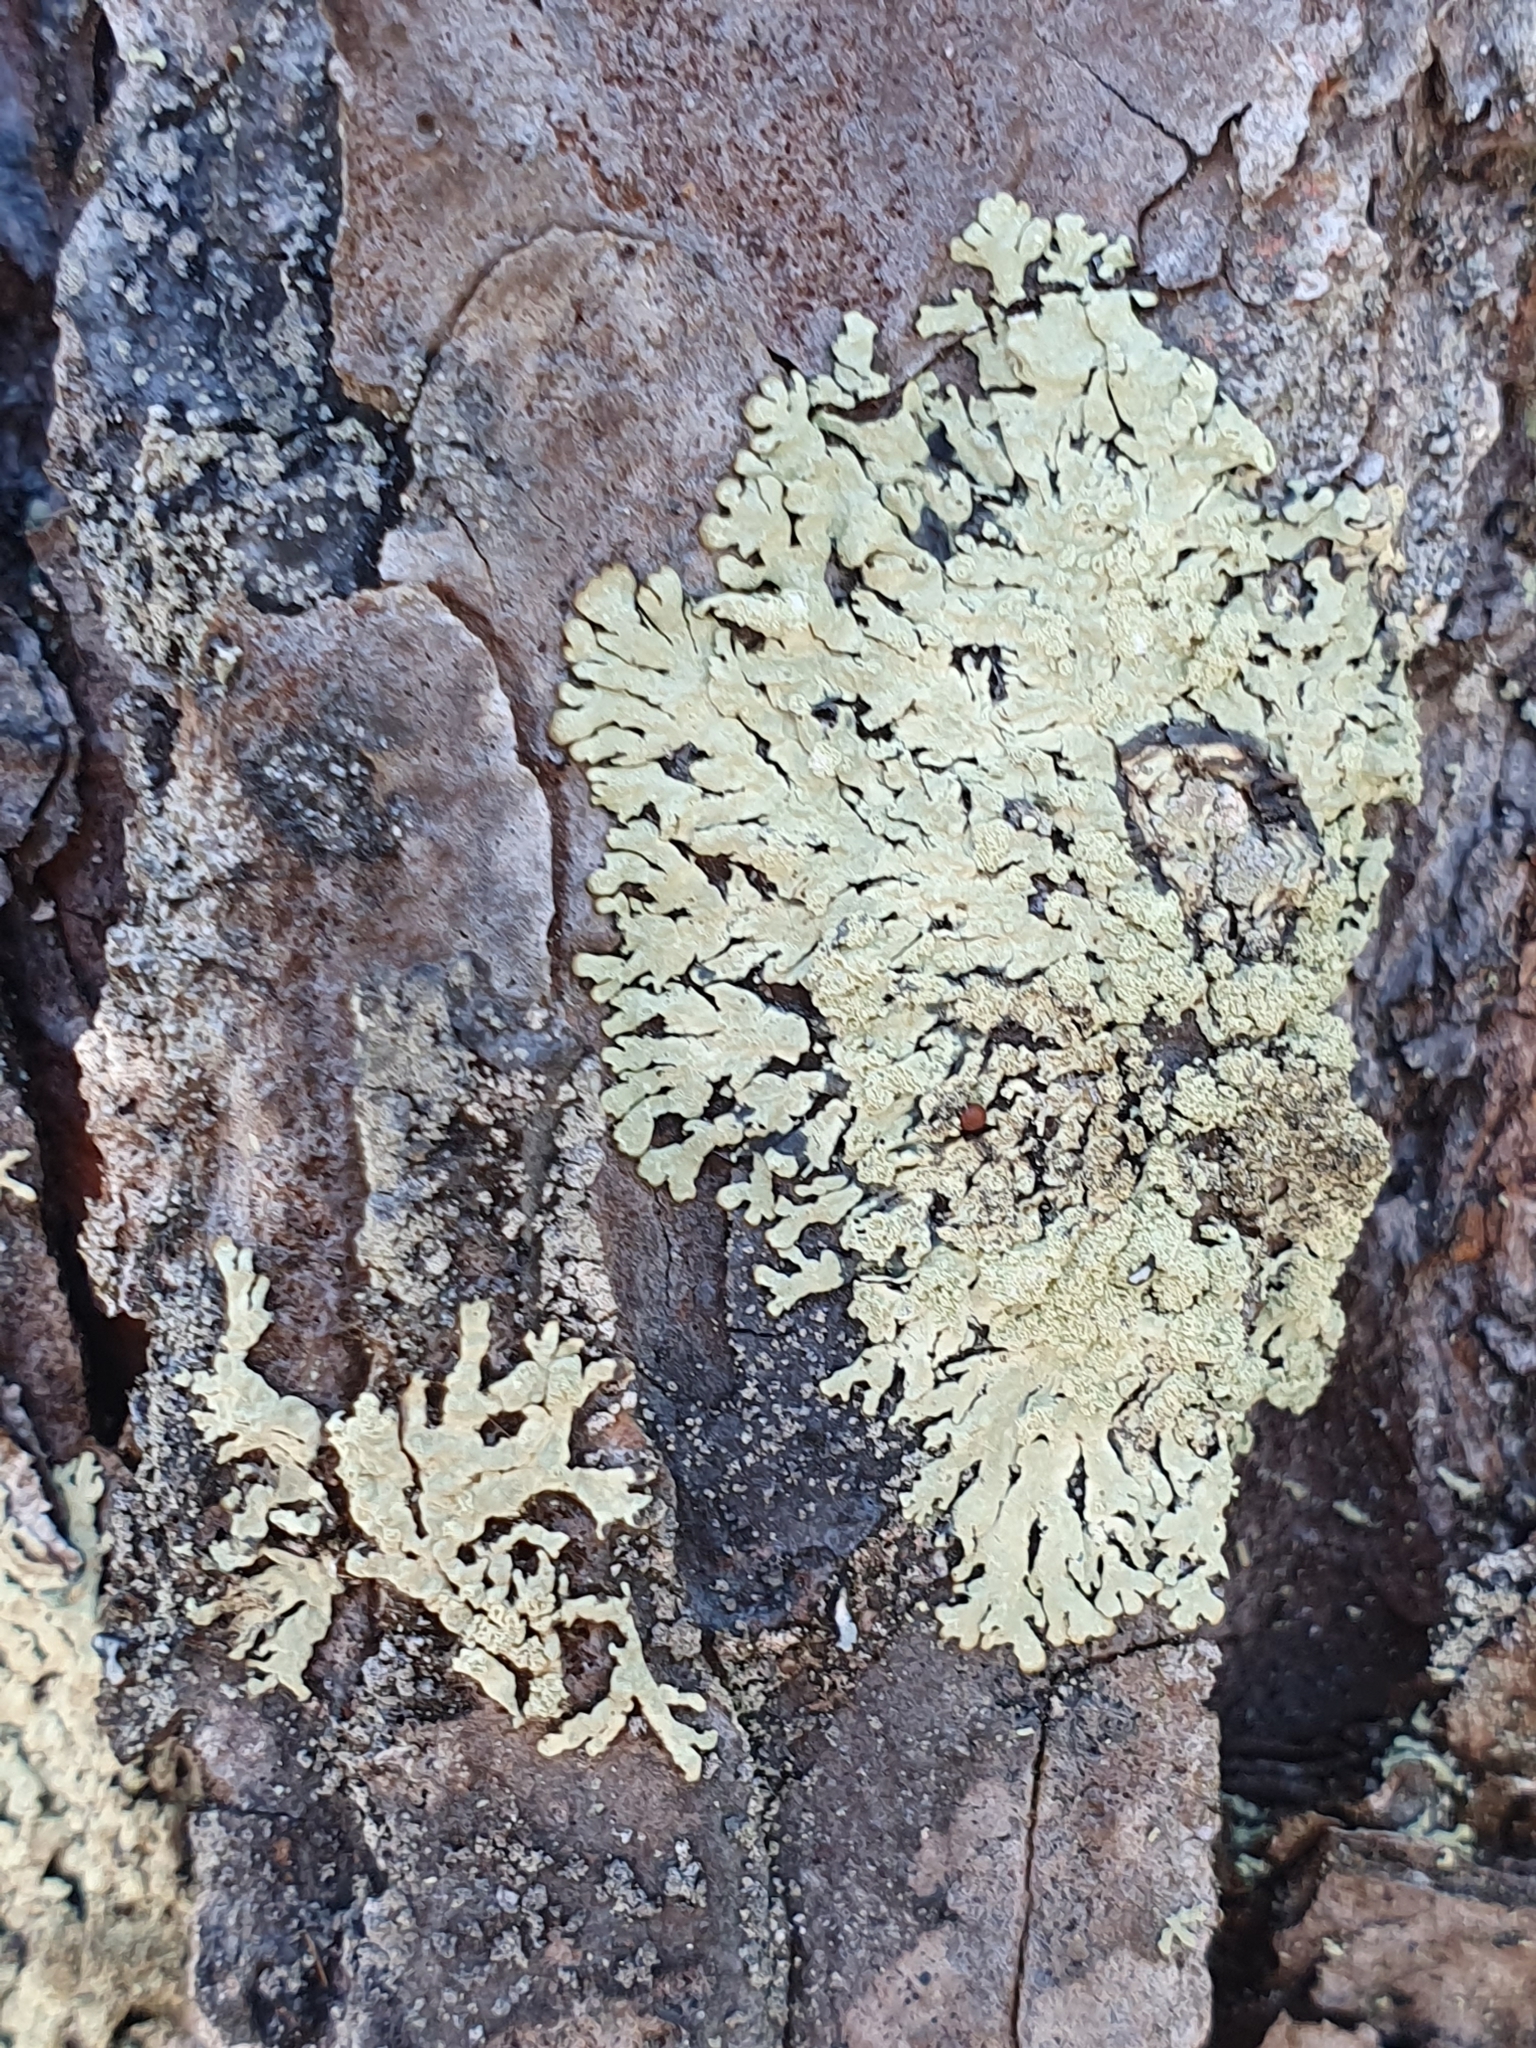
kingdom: Fungi
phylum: Ascomycota
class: Lecanoromycetes
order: Lecanorales
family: Parmeliaceae
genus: Parmeliopsis
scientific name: Parmeliopsis ambigua
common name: Green starburst lichen
